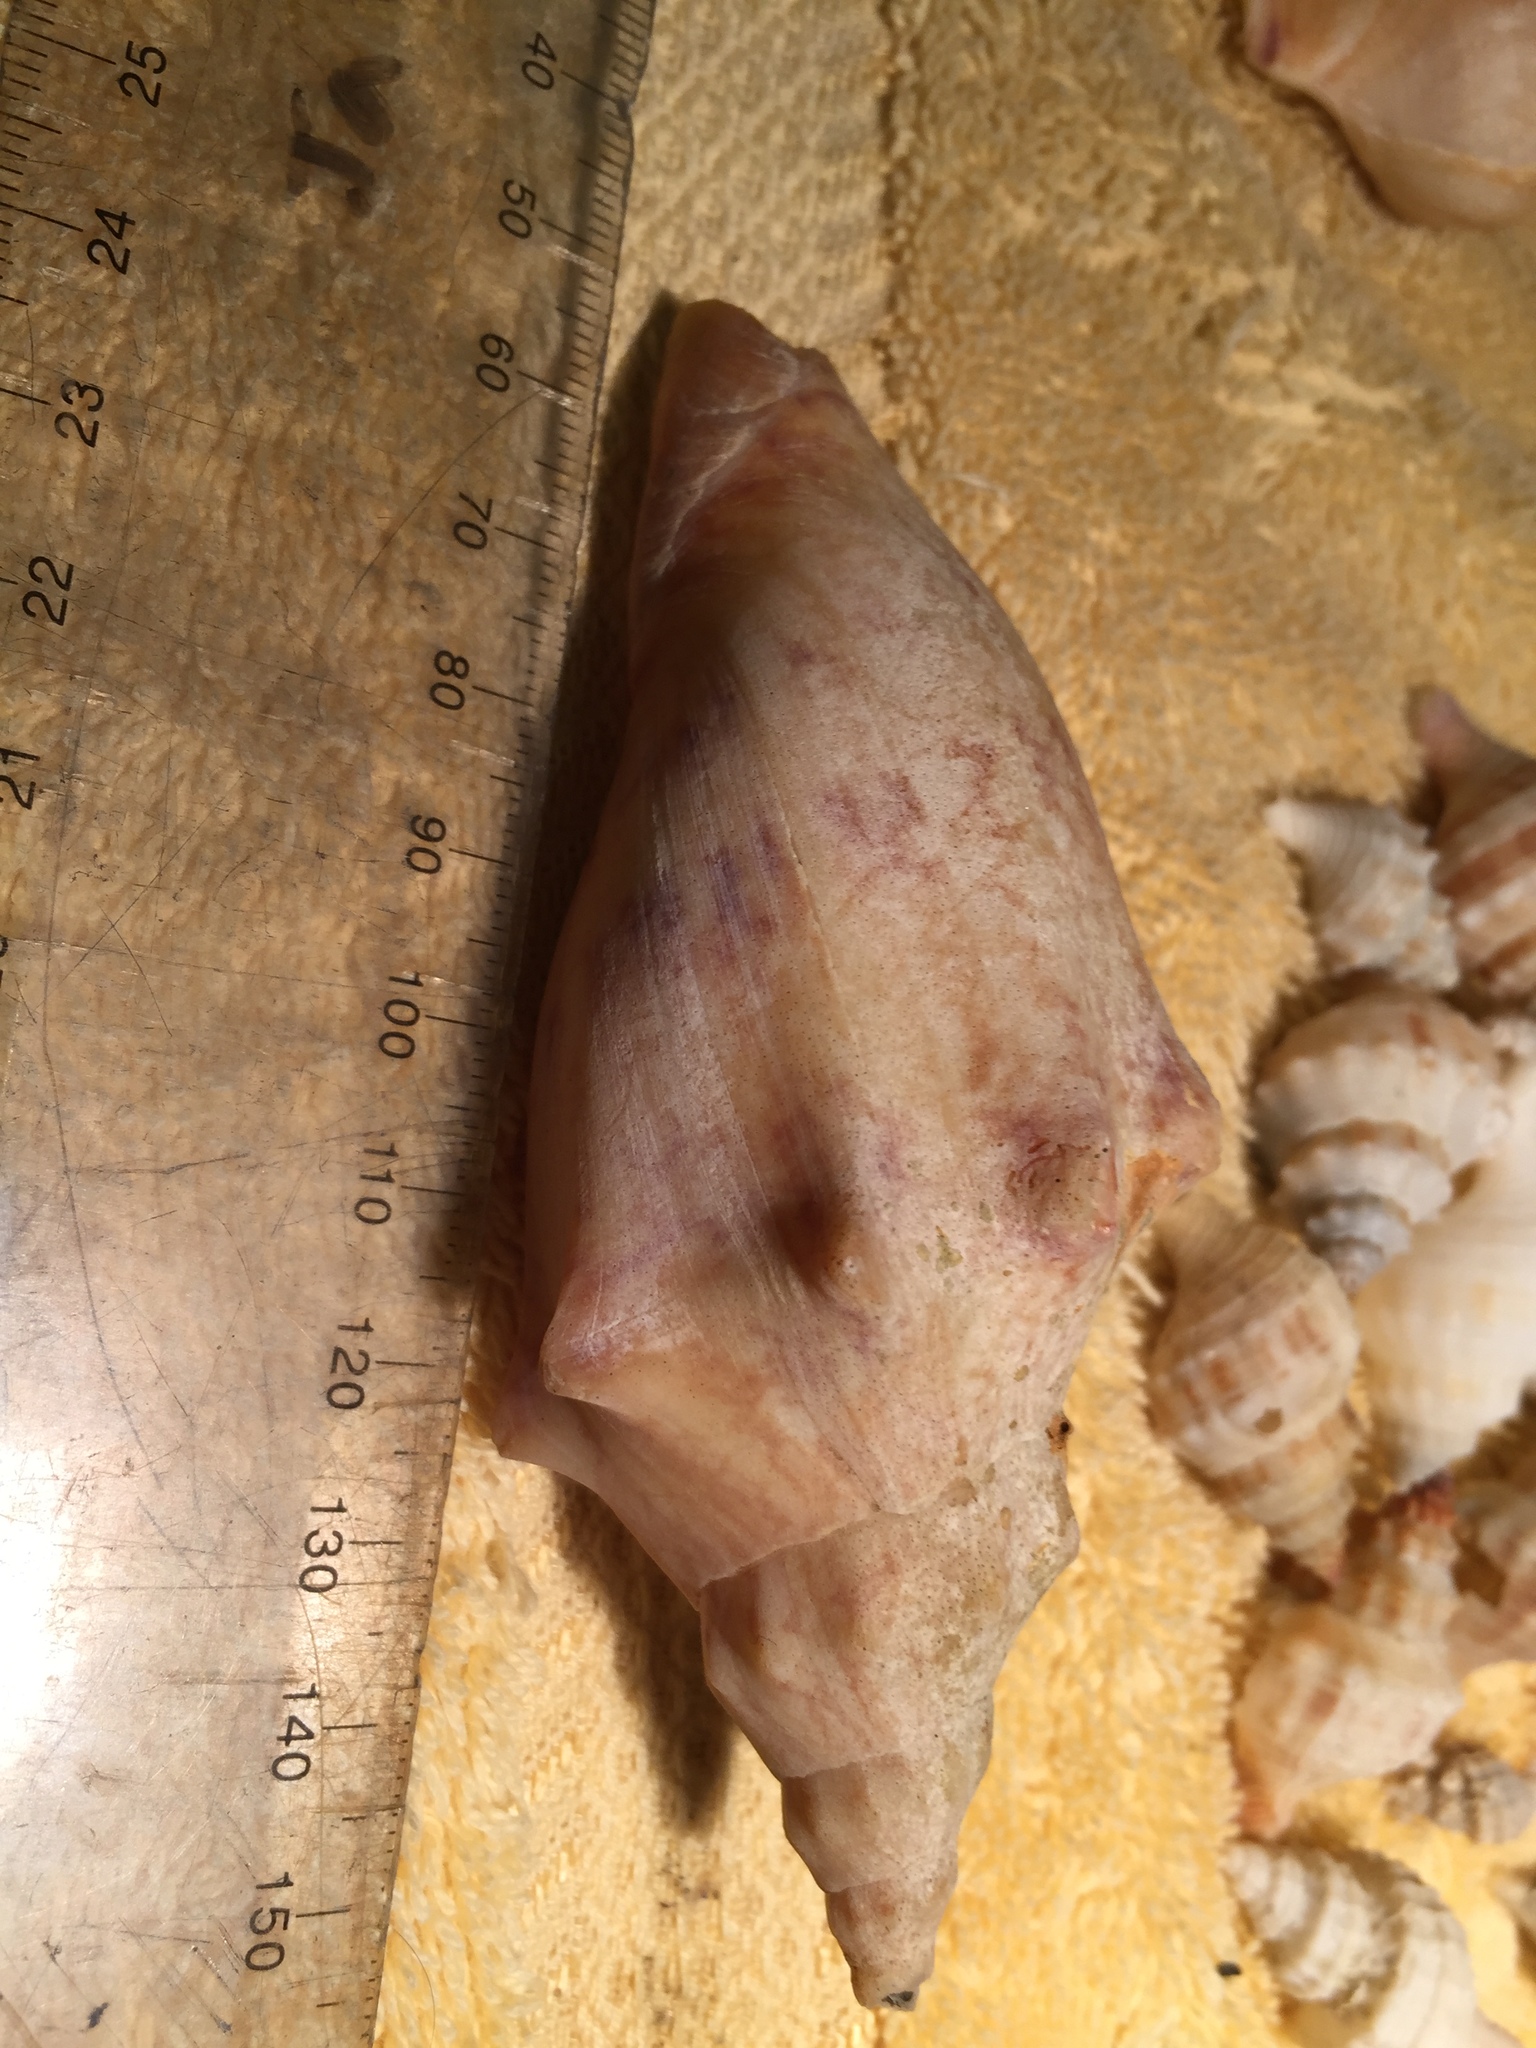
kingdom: Animalia
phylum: Mollusca
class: Gastropoda
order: Neogastropoda
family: Volutidae
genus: Alcithoe
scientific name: Alcithoe arabica
